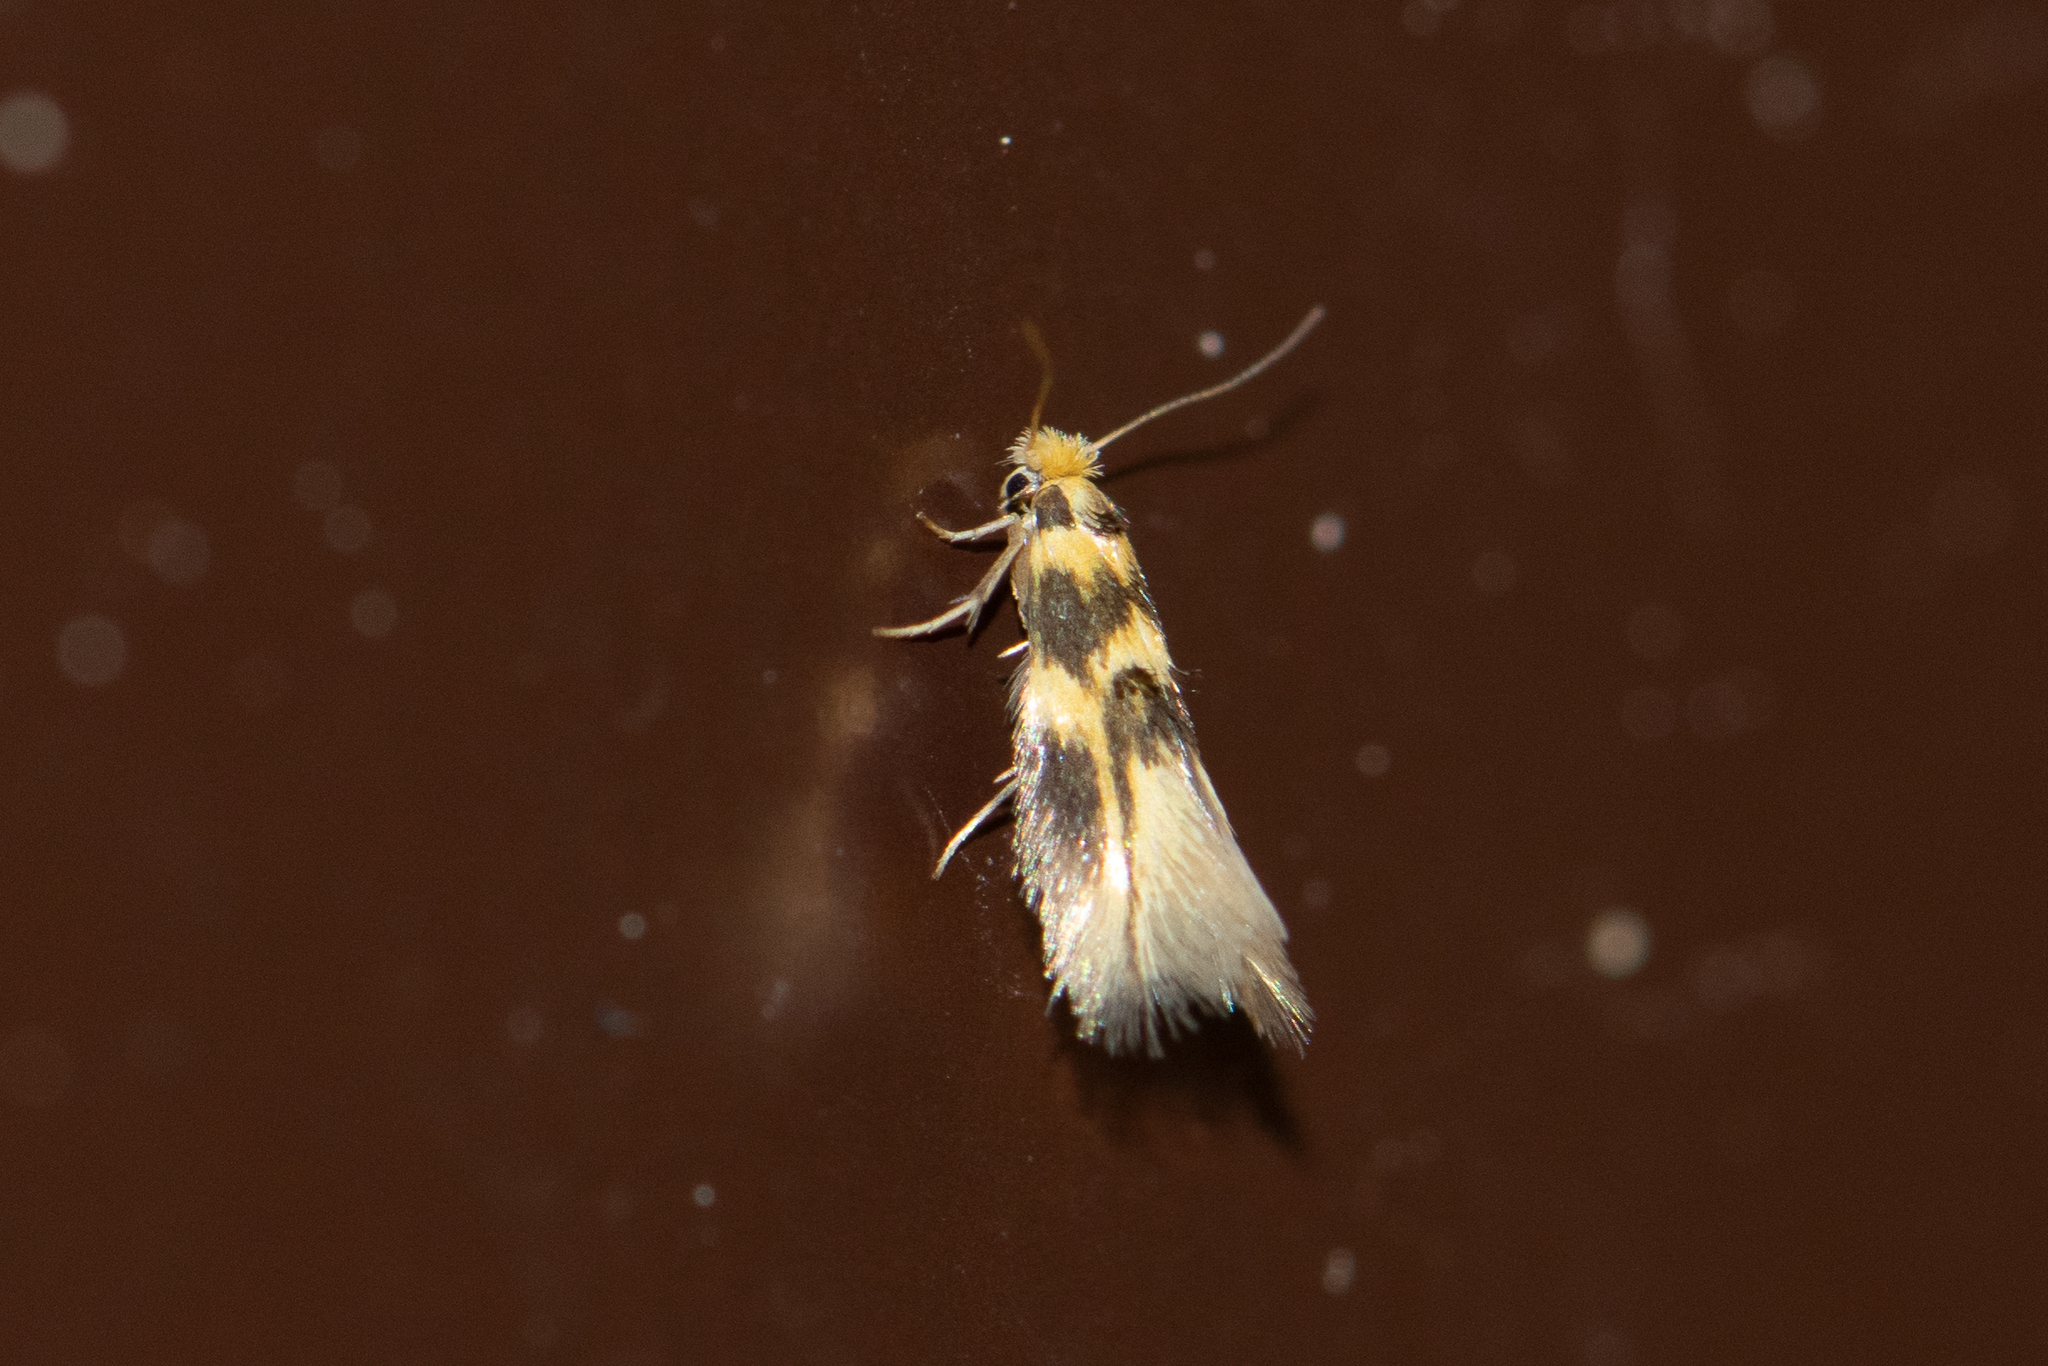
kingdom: Animalia
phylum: Arthropoda
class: Insecta
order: Lepidoptera
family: Bucculatricidae
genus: Bucculatrix
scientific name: Bucculatrix thoracella
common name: Lime bent-wing
